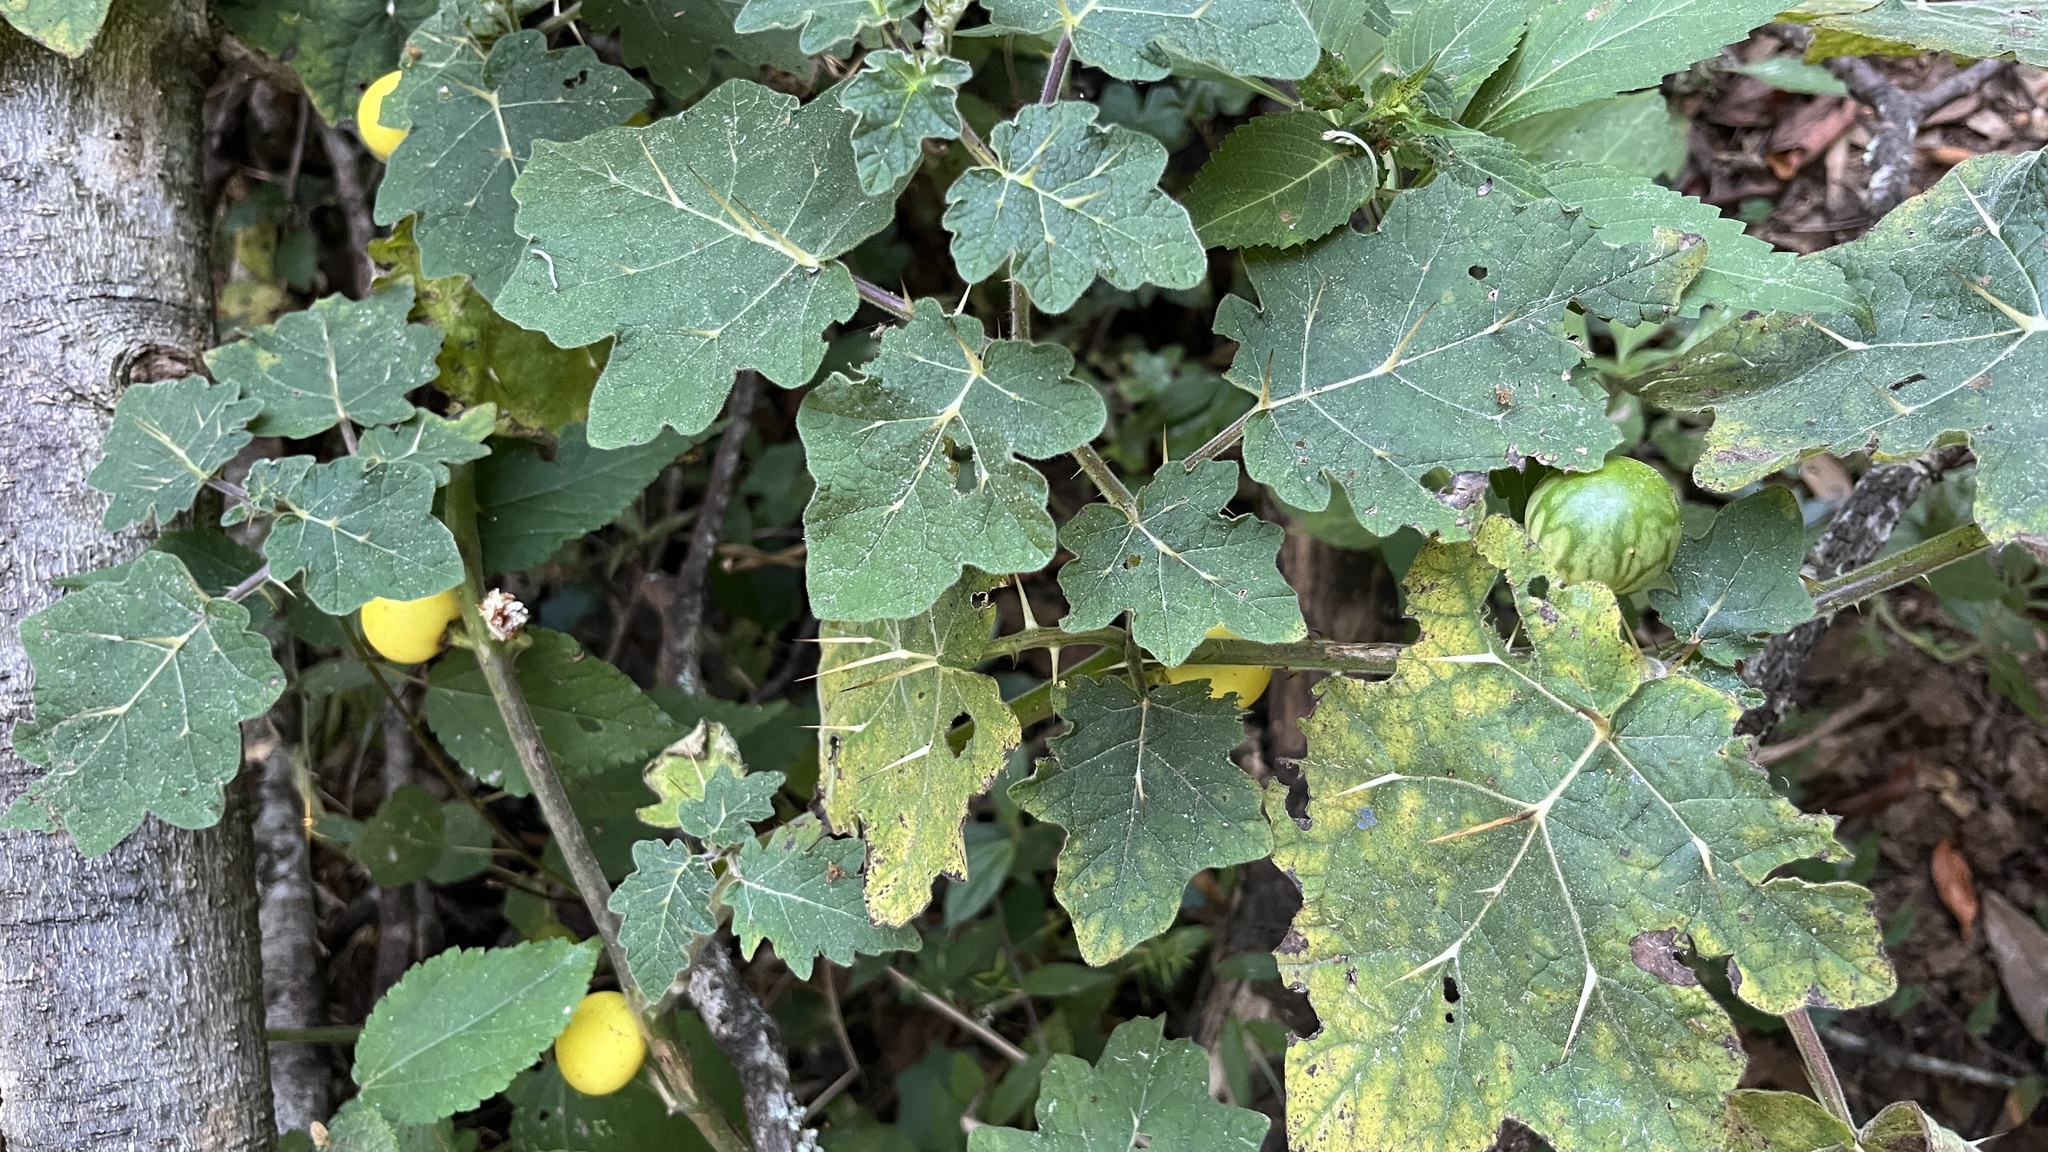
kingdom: Plantae
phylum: Tracheophyta
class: Magnoliopsida
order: Solanales
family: Solanaceae
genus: Solanum
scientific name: Solanum viarum
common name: Tropical soda apple
